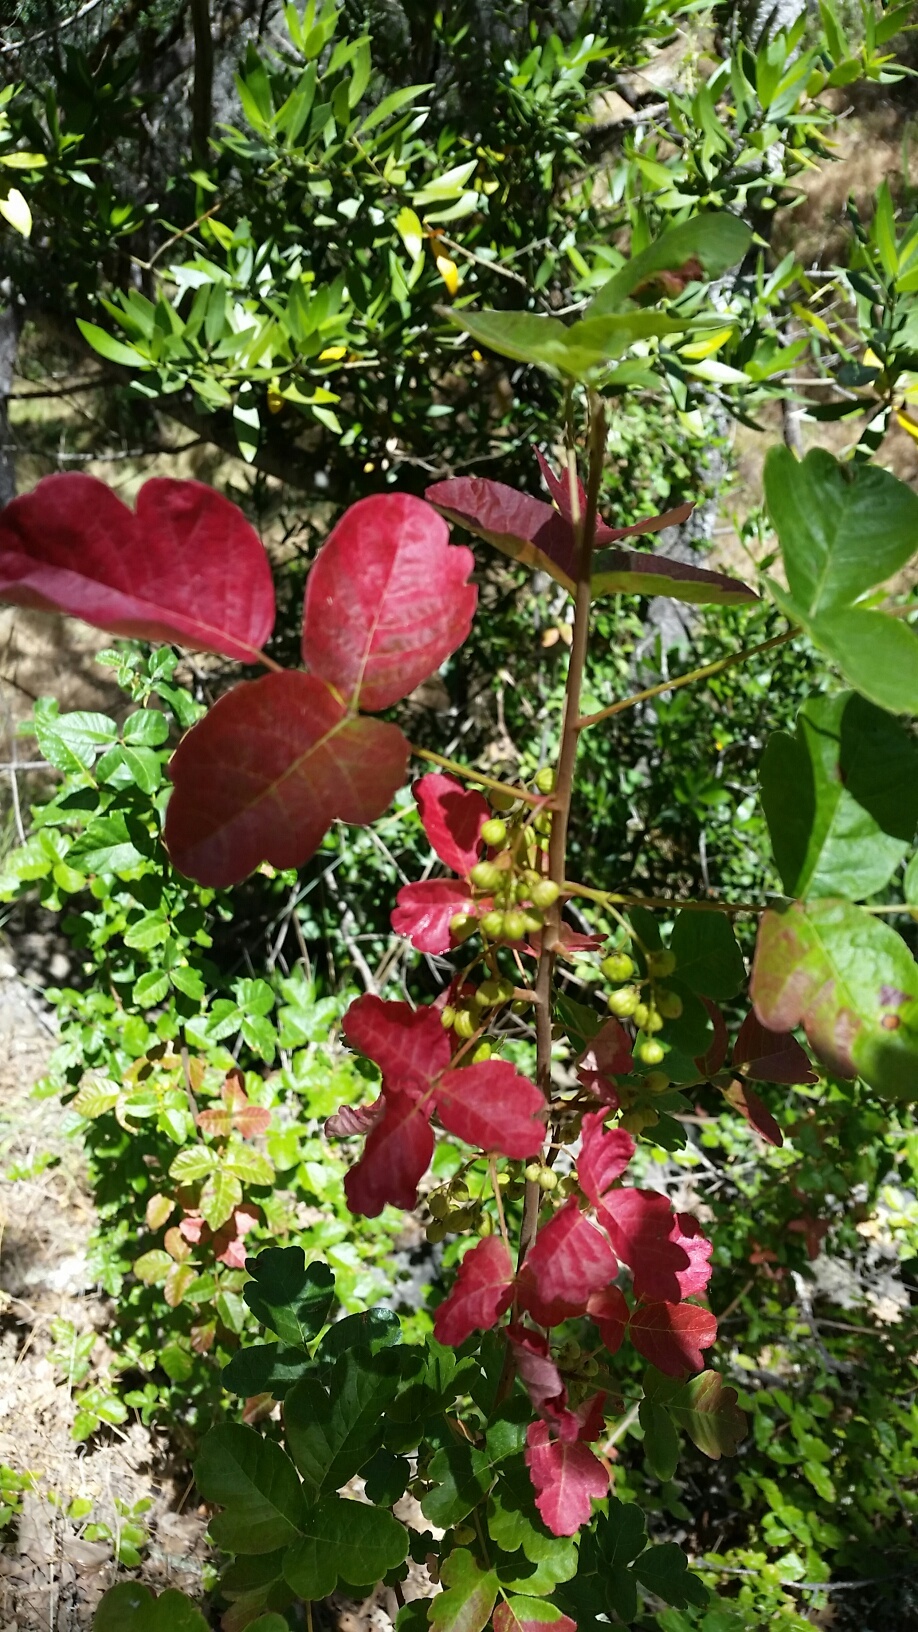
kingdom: Plantae
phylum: Tracheophyta
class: Magnoliopsida
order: Sapindales
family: Anacardiaceae
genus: Toxicodendron
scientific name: Toxicodendron diversilobum
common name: Pacific poison-oak
